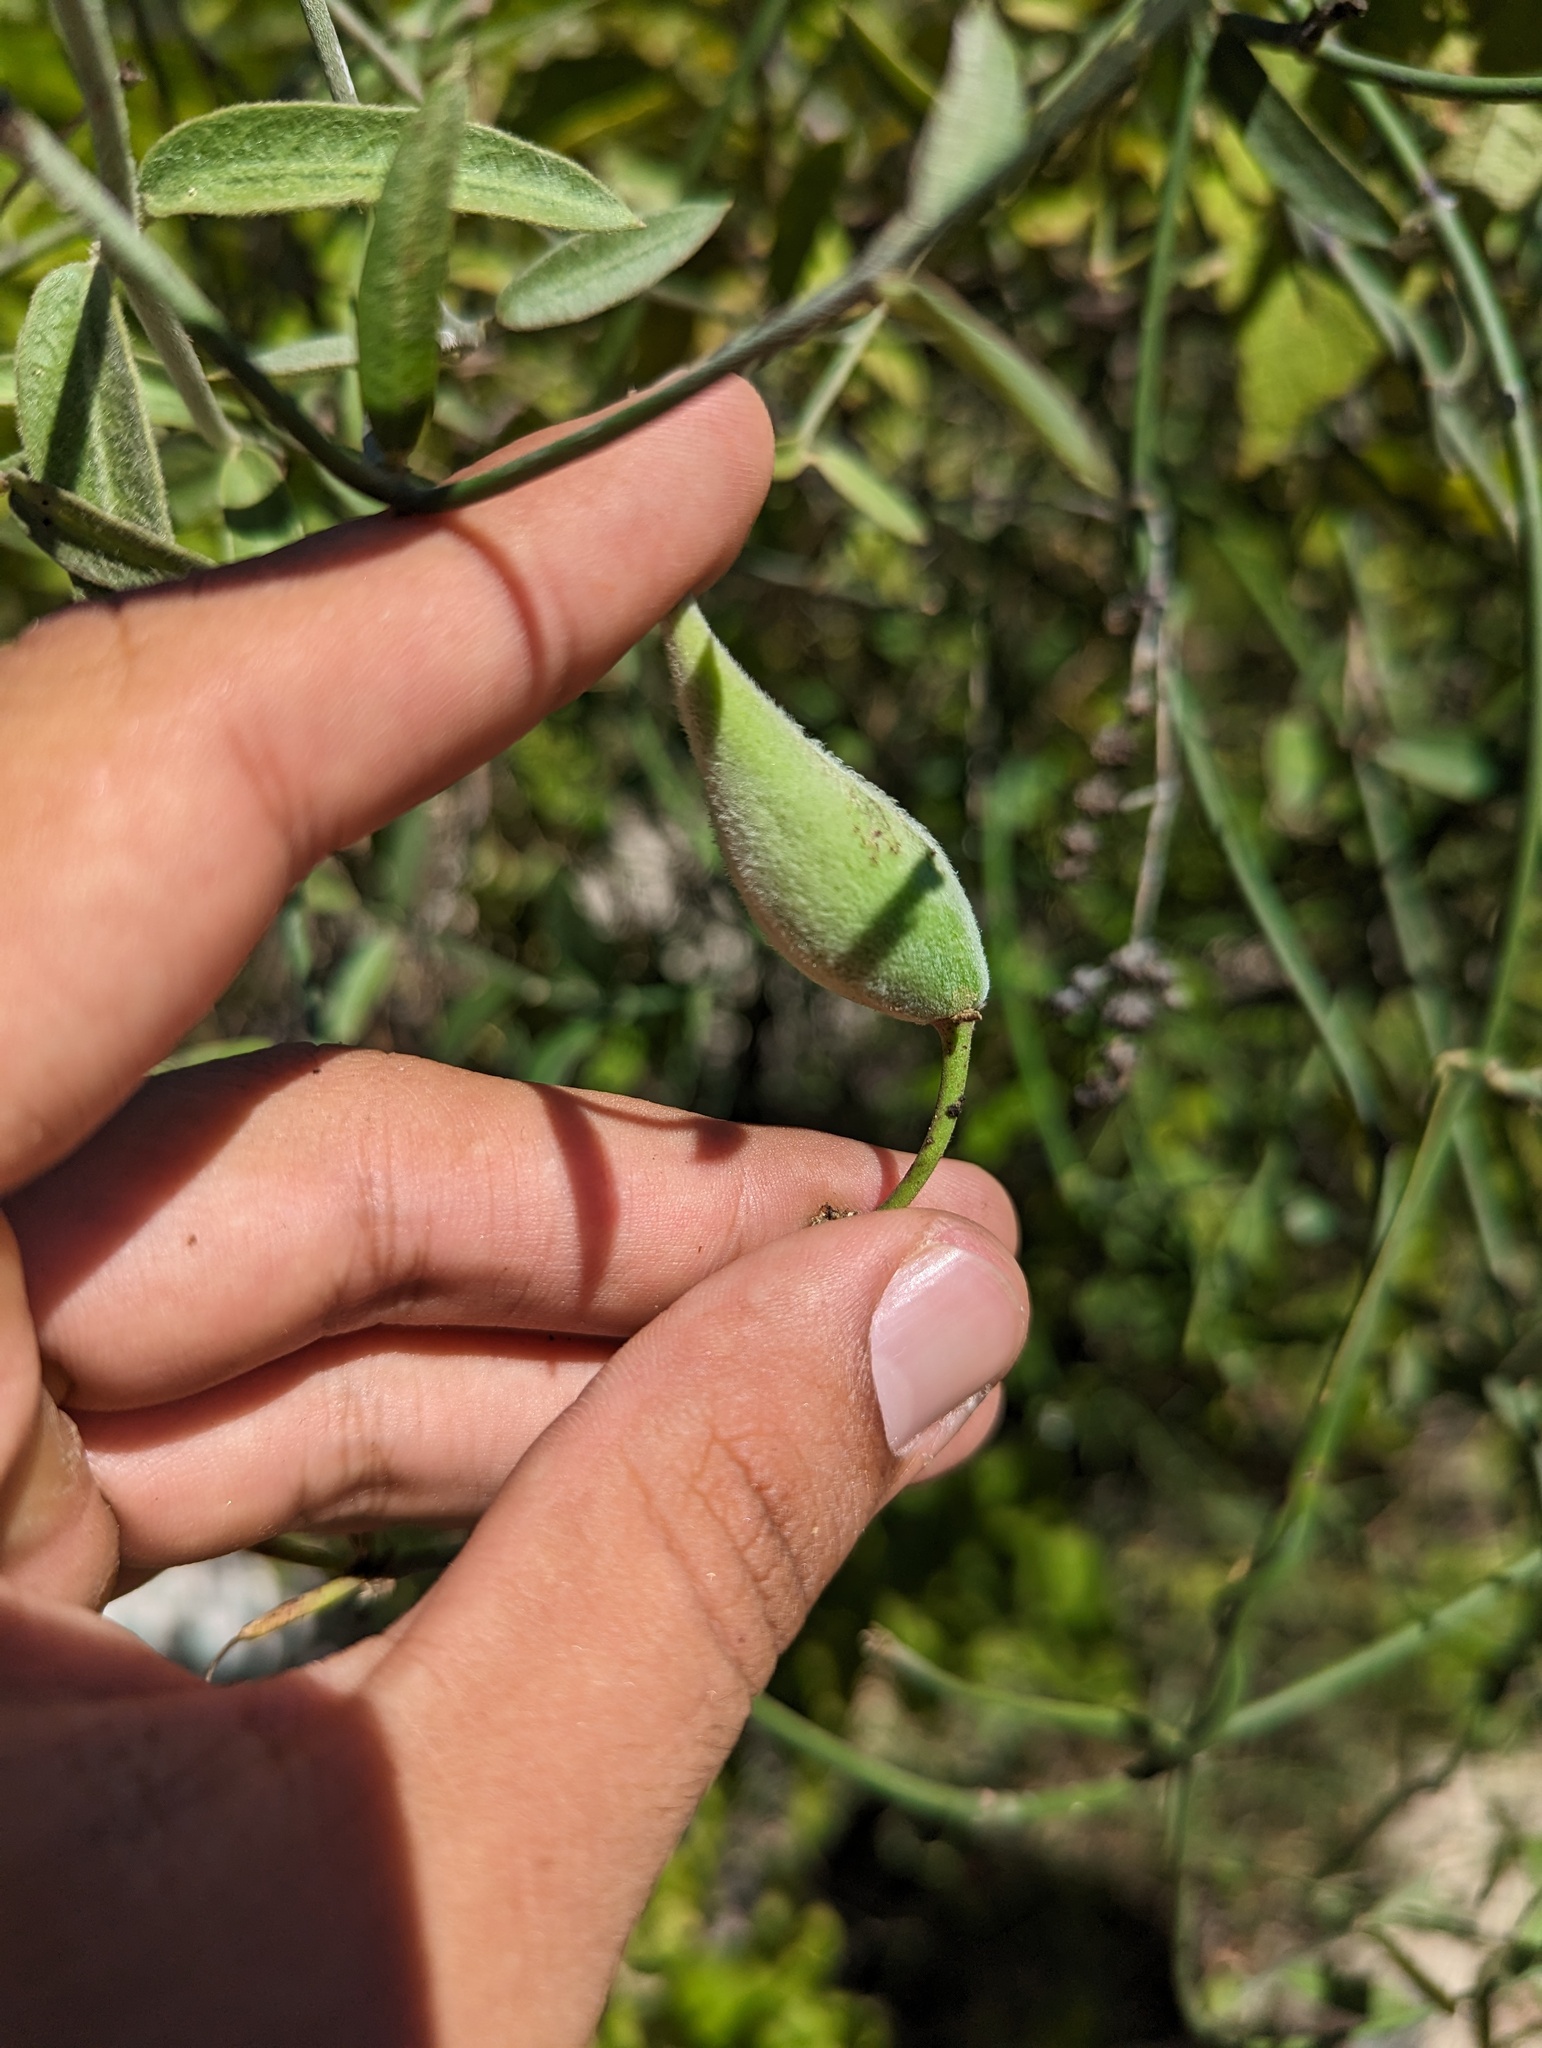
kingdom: Plantae
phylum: Tracheophyta
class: Magnoliopsida
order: Gentianales
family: Apocynaceae
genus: Funastrum
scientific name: Funastrum clausum
